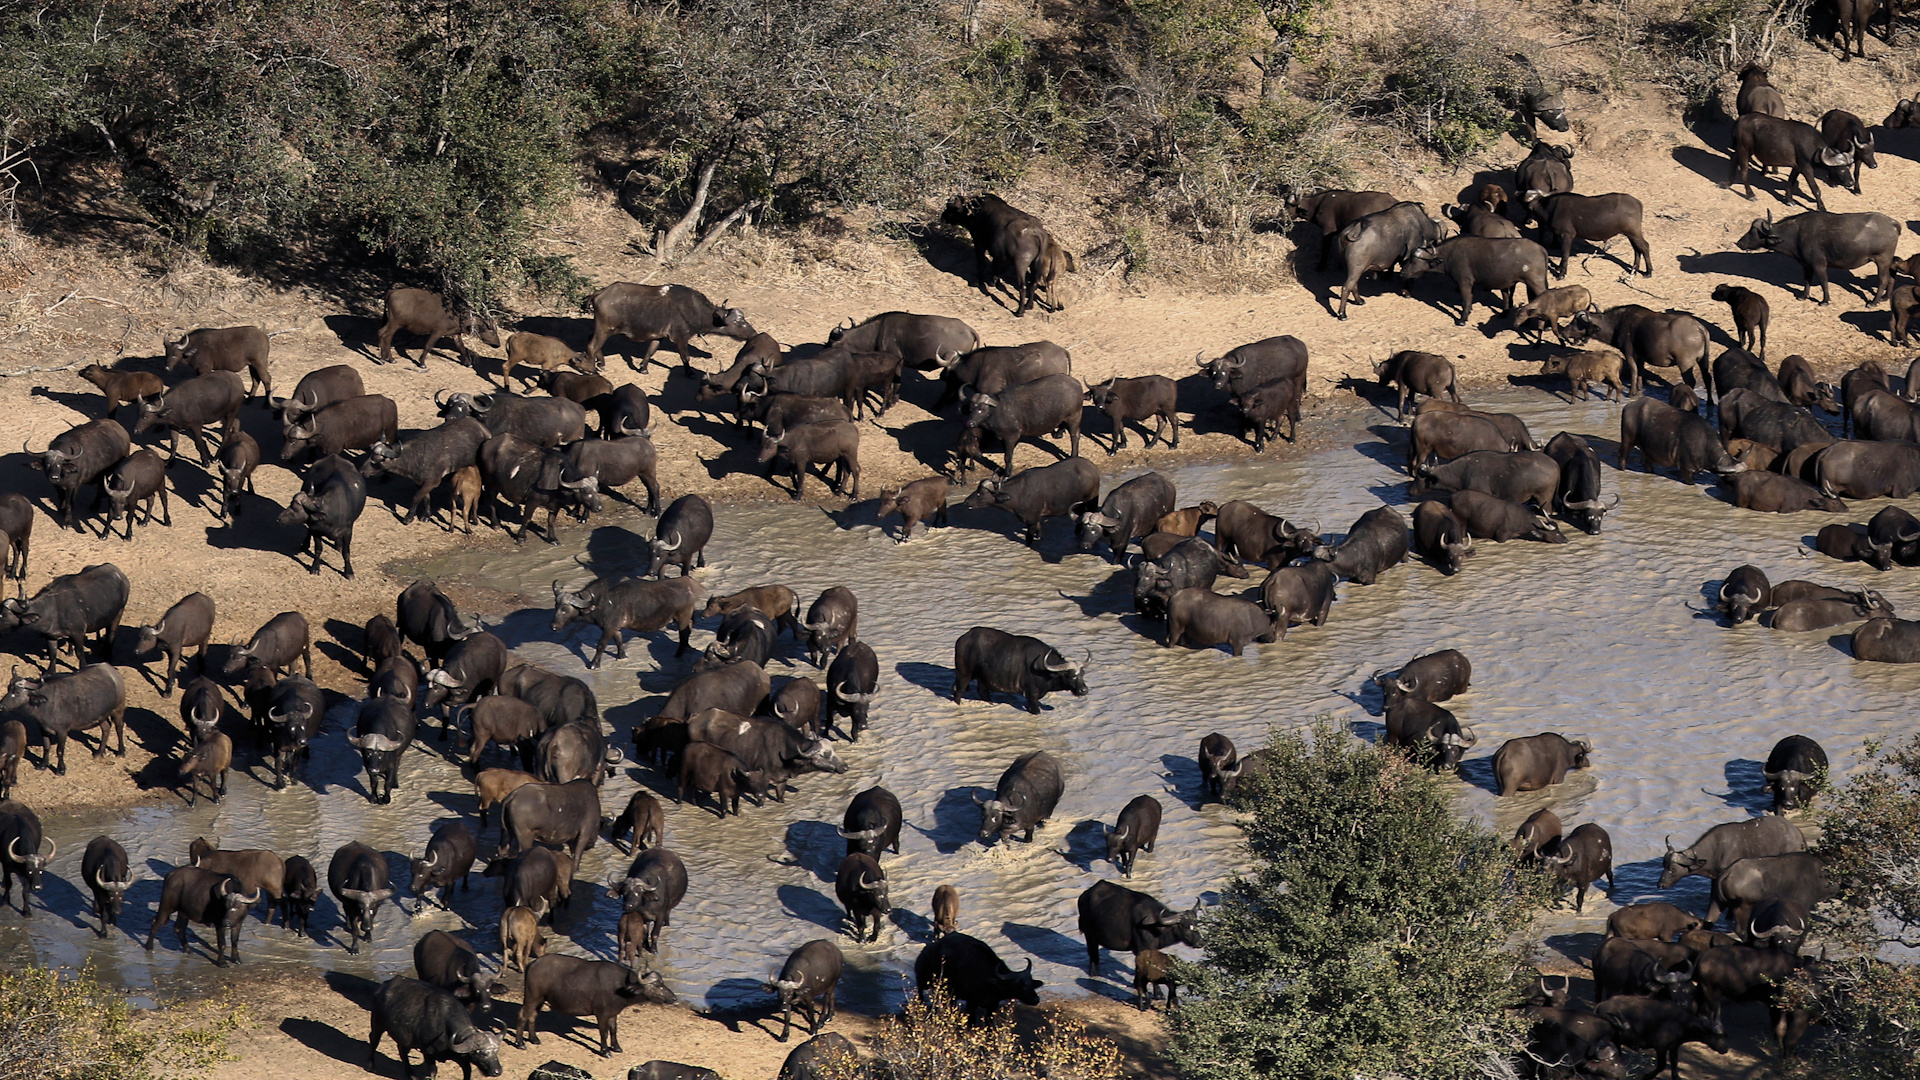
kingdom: Animalia
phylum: Chordata
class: Mammalia
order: Artiodactyla
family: Bovidae
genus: Syncerus
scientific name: Syncerus caffer
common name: African buffalo
